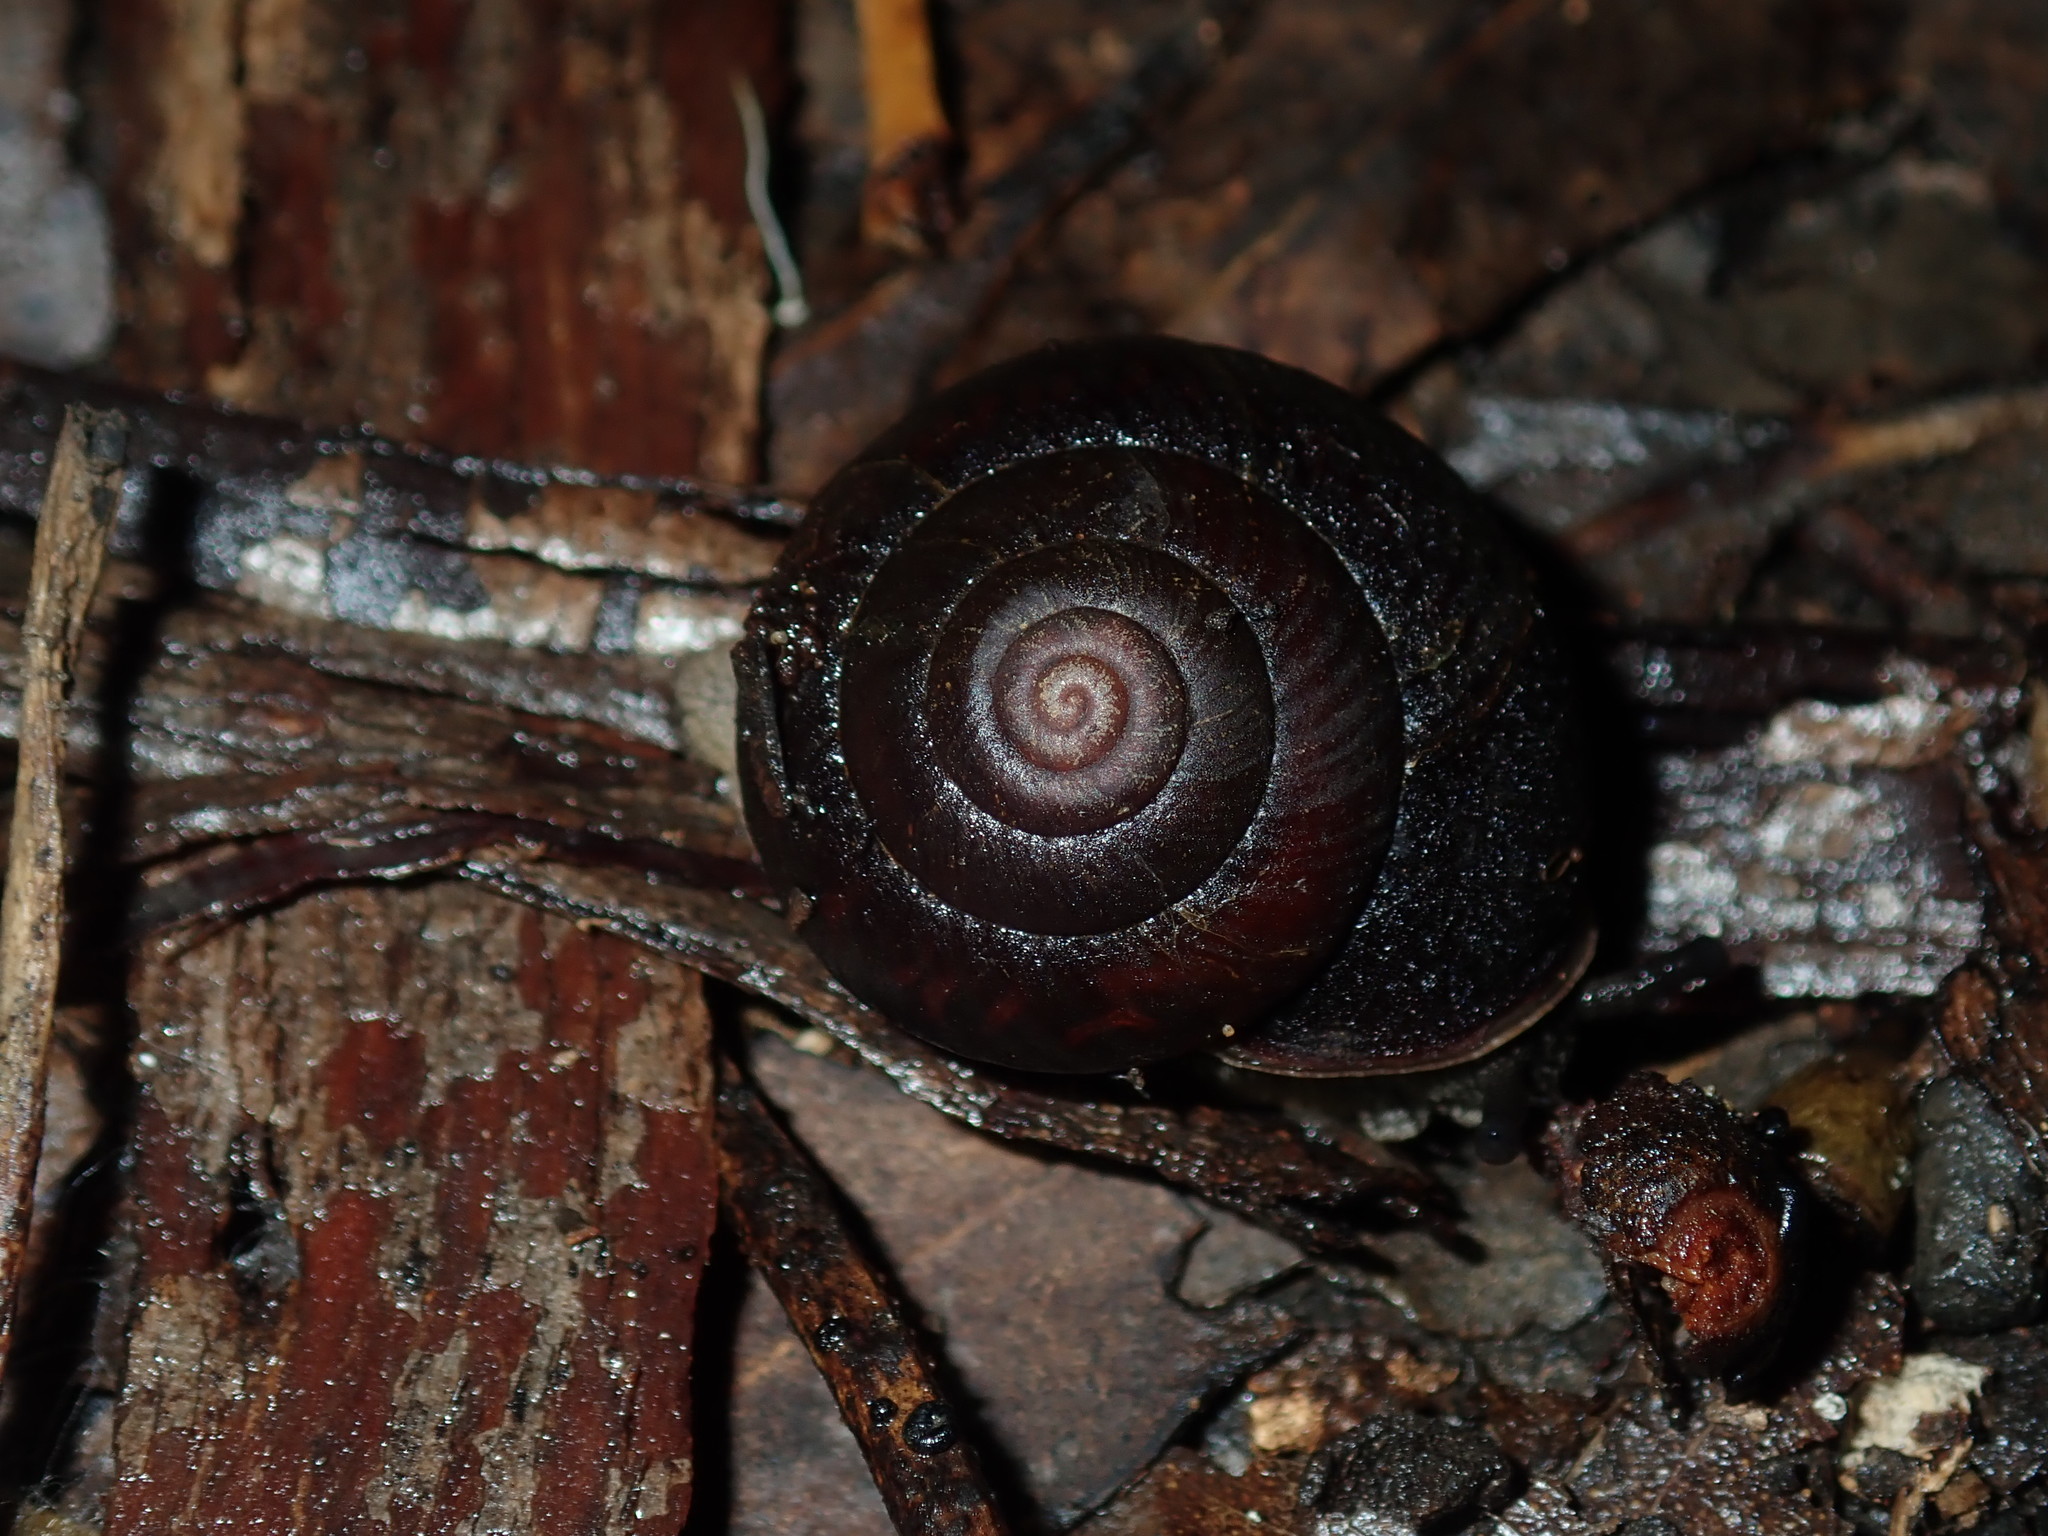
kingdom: Animalia
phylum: Mollusca
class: Gastropoda
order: Stylommatophora
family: Camaenidae
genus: Sauroconcha
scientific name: Sauroconcha sheai
